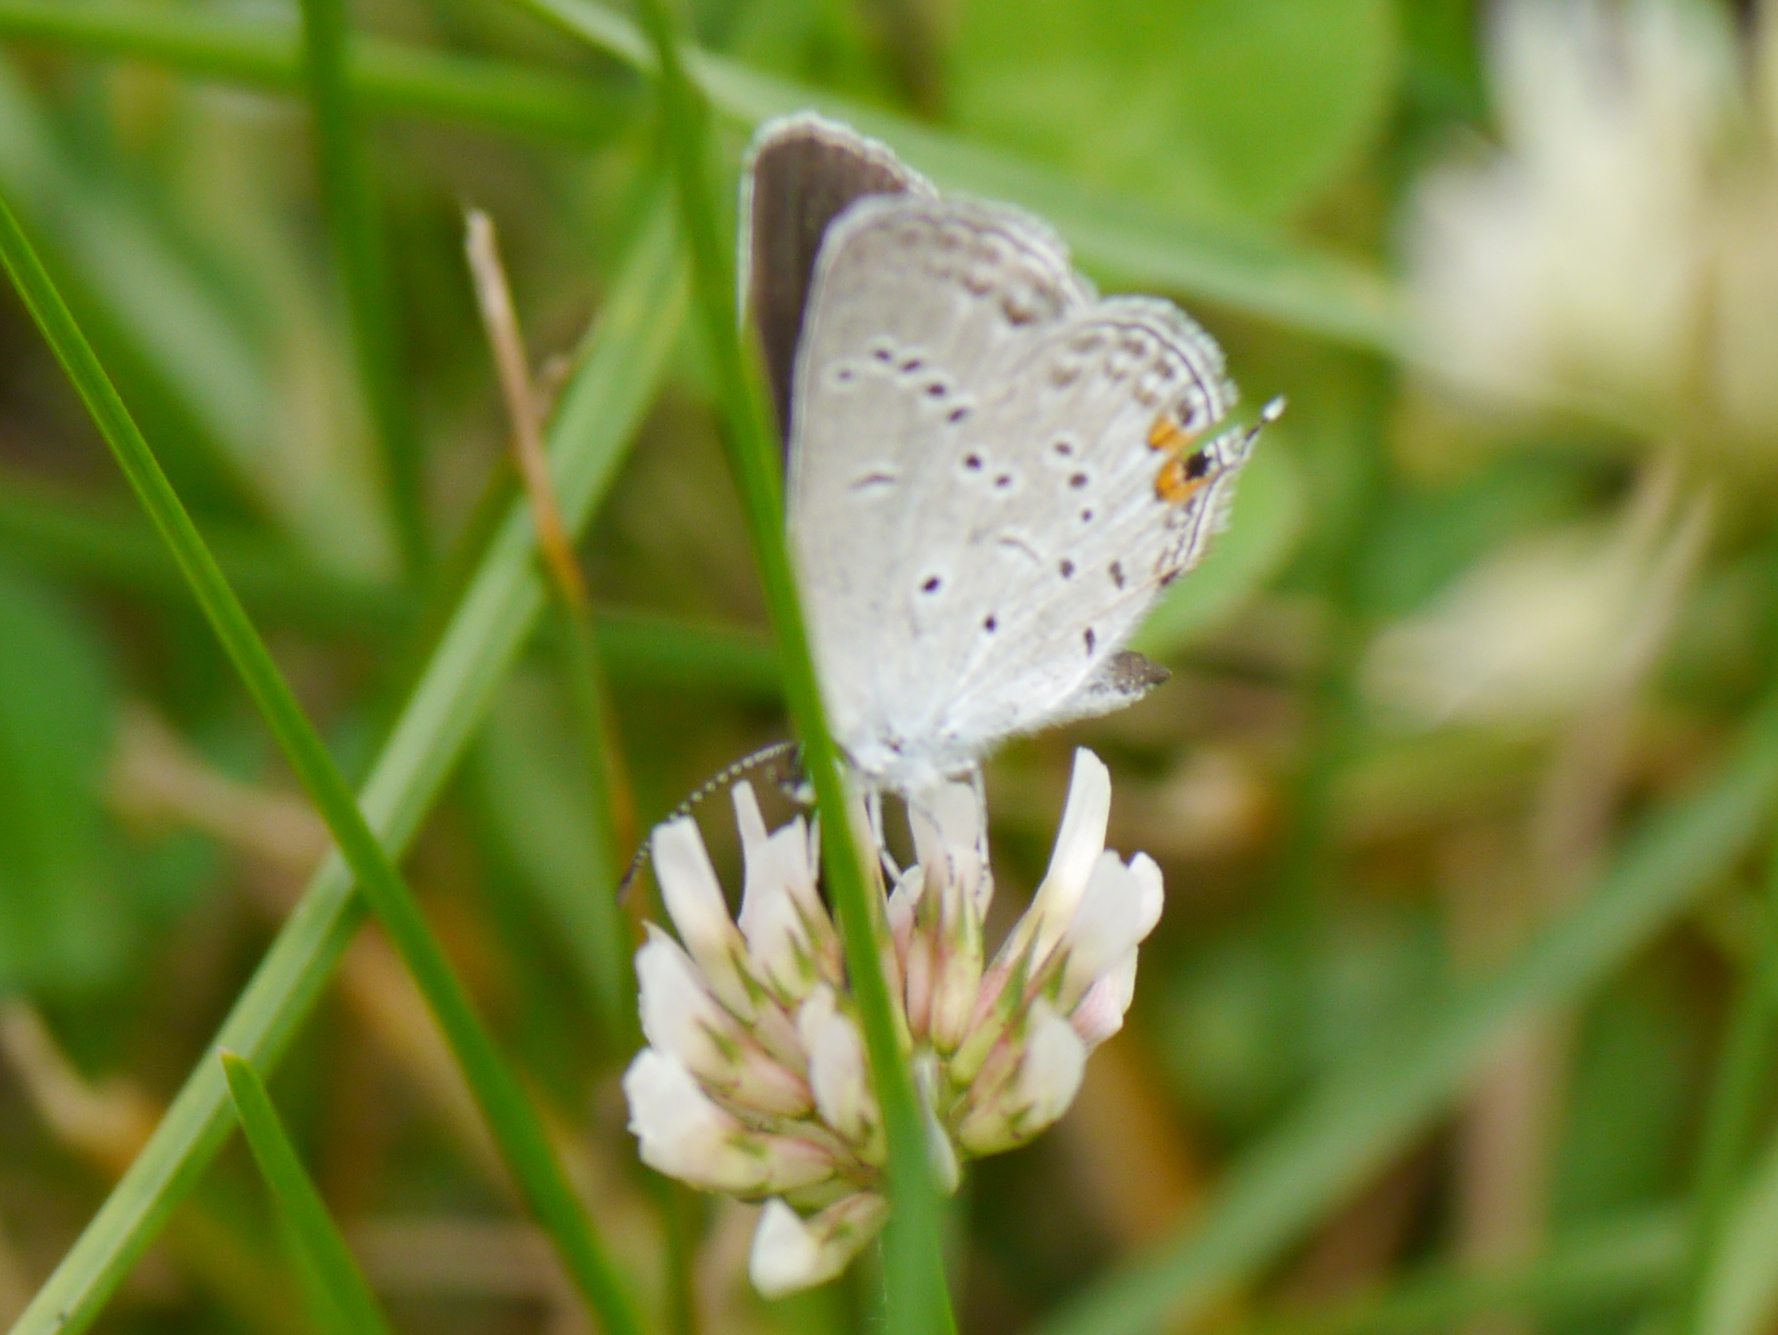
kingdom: Animalia
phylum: Arthropoda
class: Insecta
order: Lepidoptera
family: Lycaenidae
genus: Elkalyce
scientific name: Elkalyce comyntas
